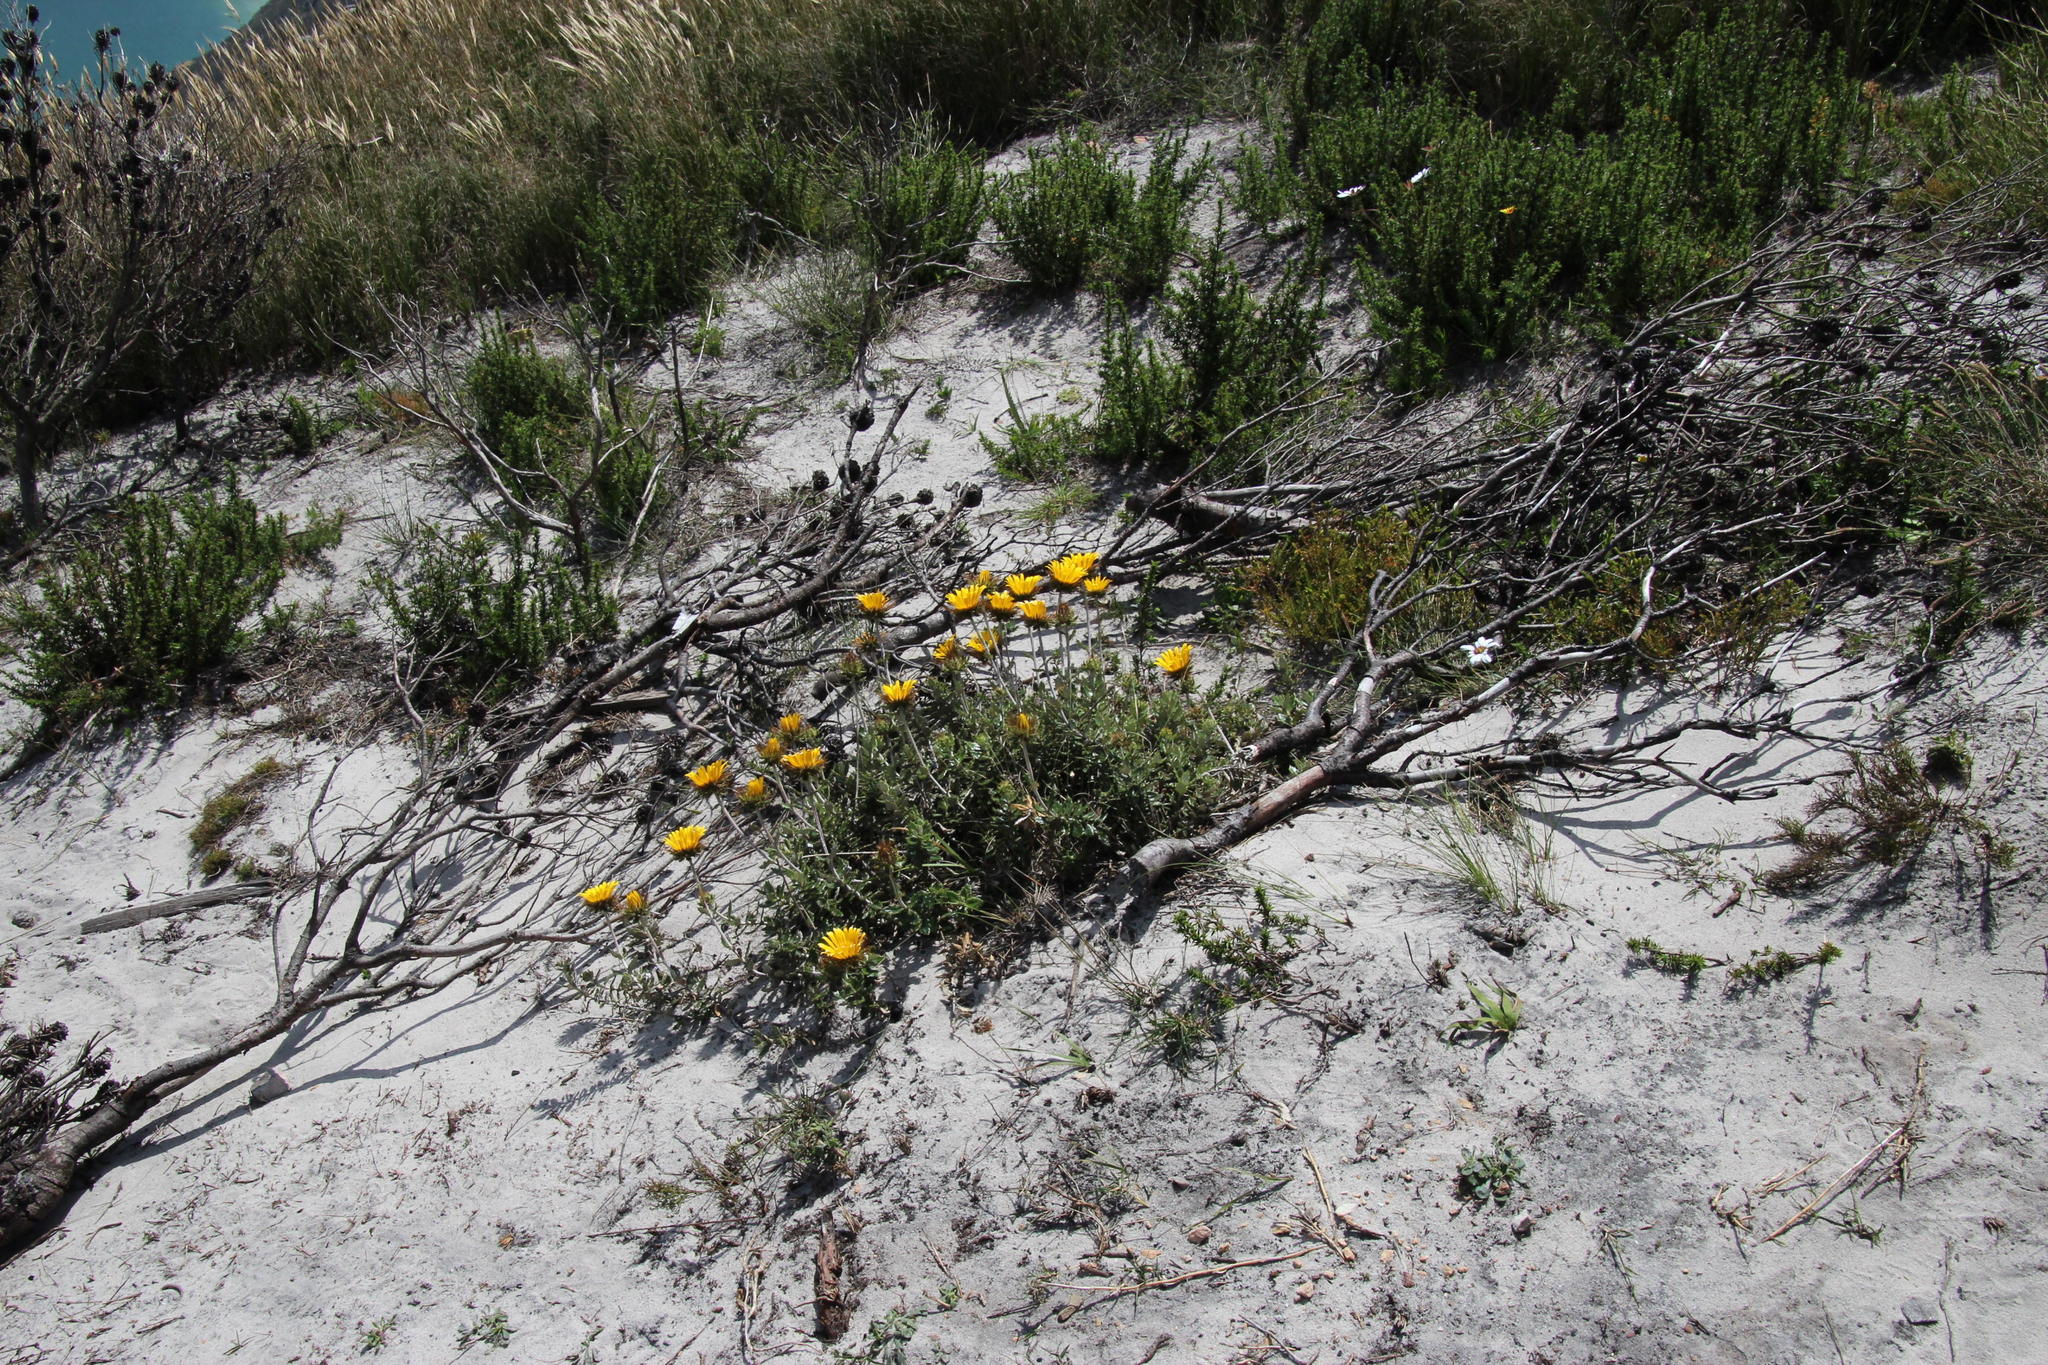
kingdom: Plantae
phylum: Tracheophyta
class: Magnoliopsida
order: Asterales
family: Asteraceae
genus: Berkheya
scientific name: Berkheya barbata
